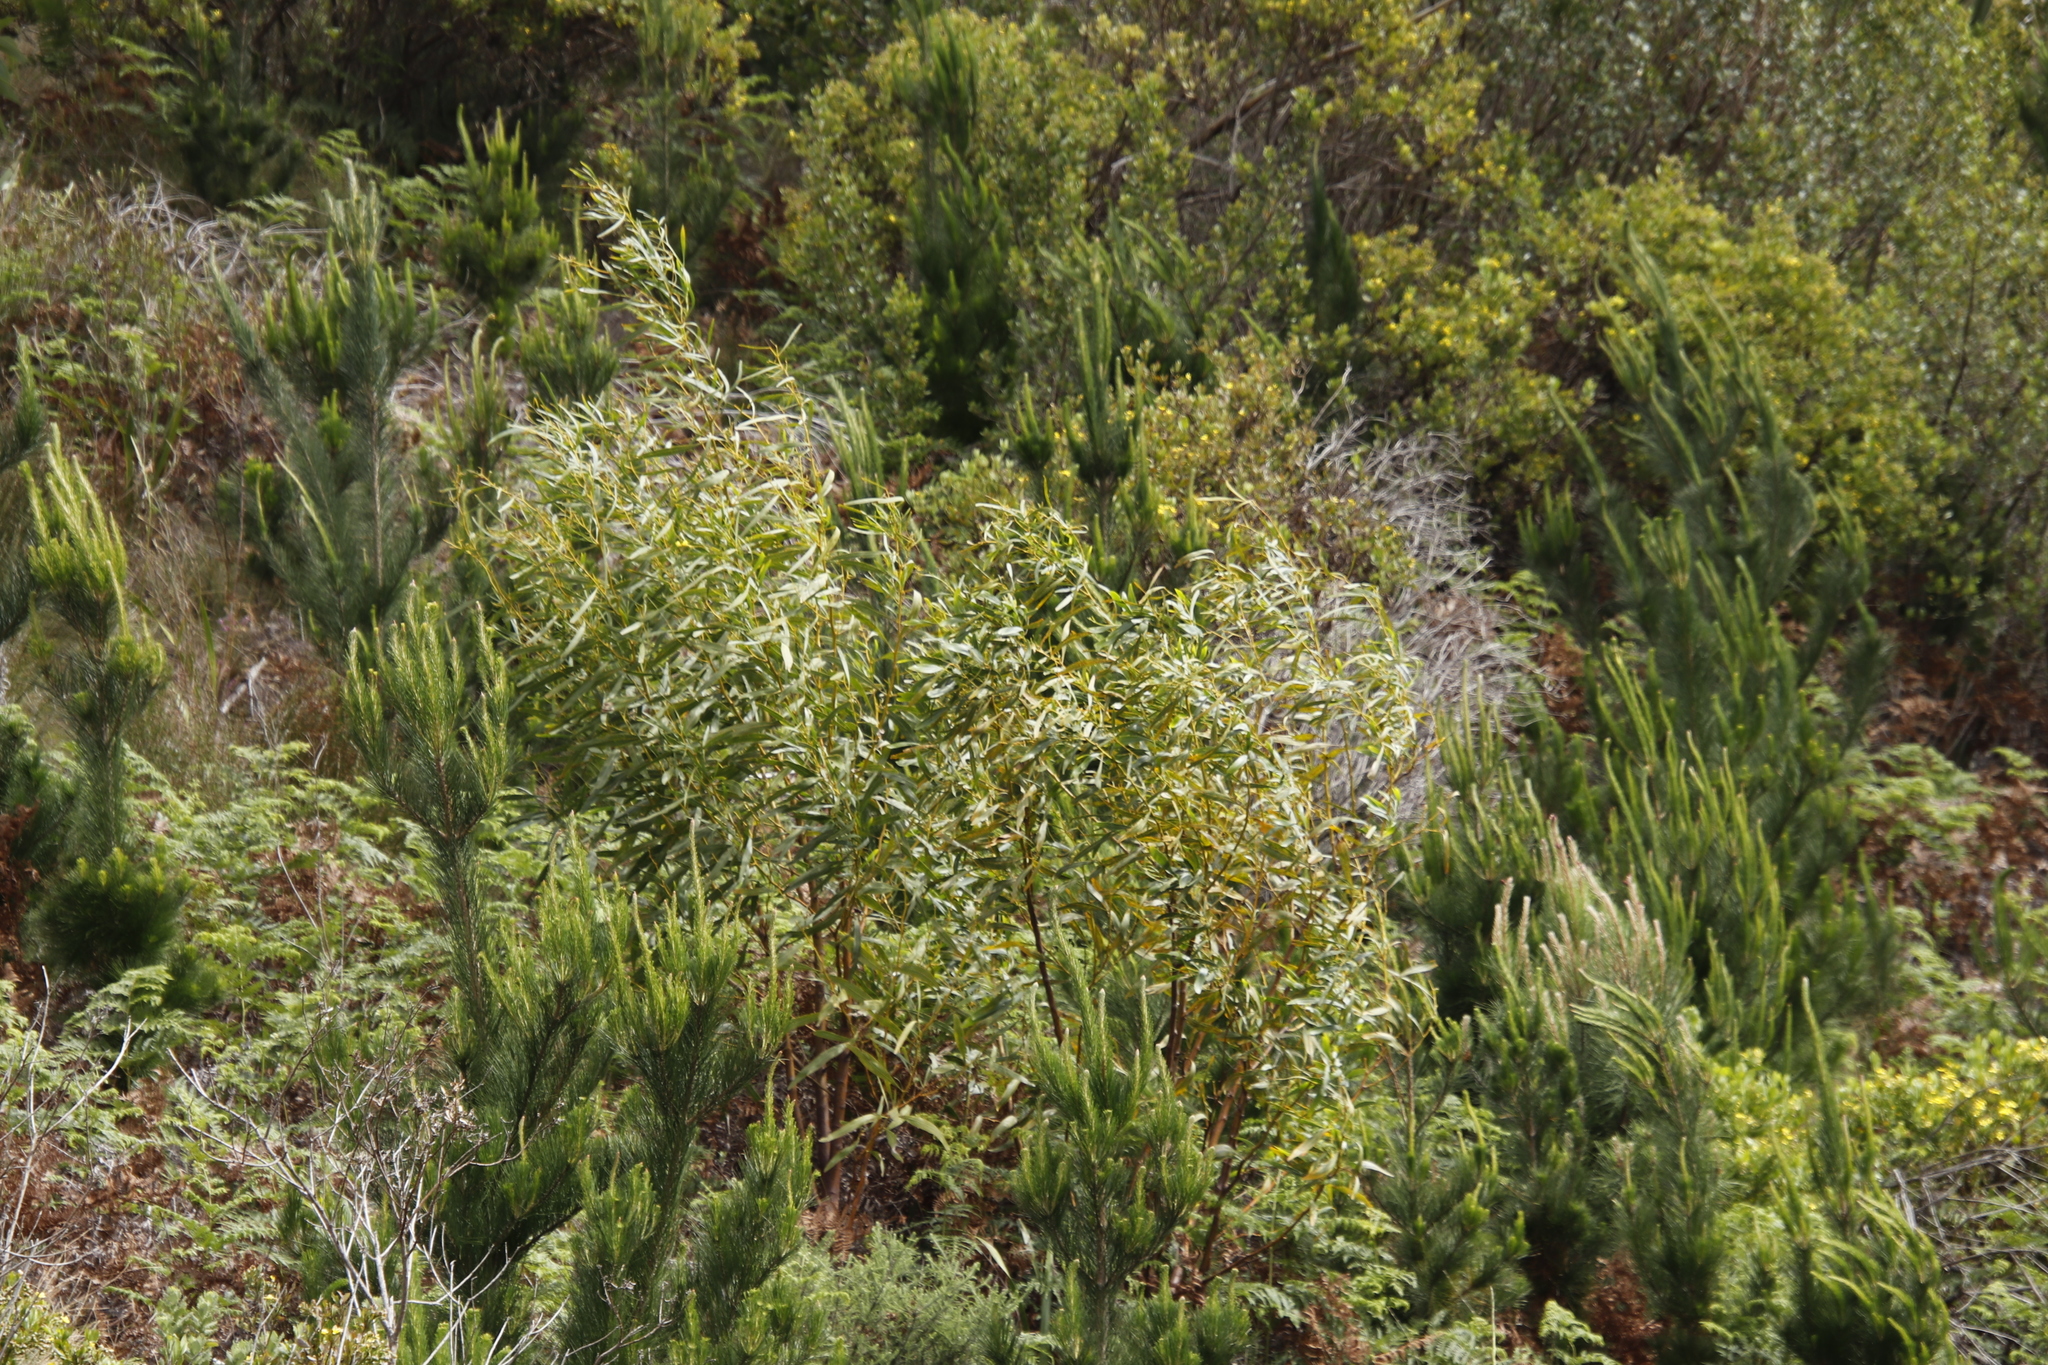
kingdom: Plantae
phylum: Tracheophyta
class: Magnoliopsida
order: Fabales
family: Fabaceae
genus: Acacia
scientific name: Acacia saligna
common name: Orange wattle
